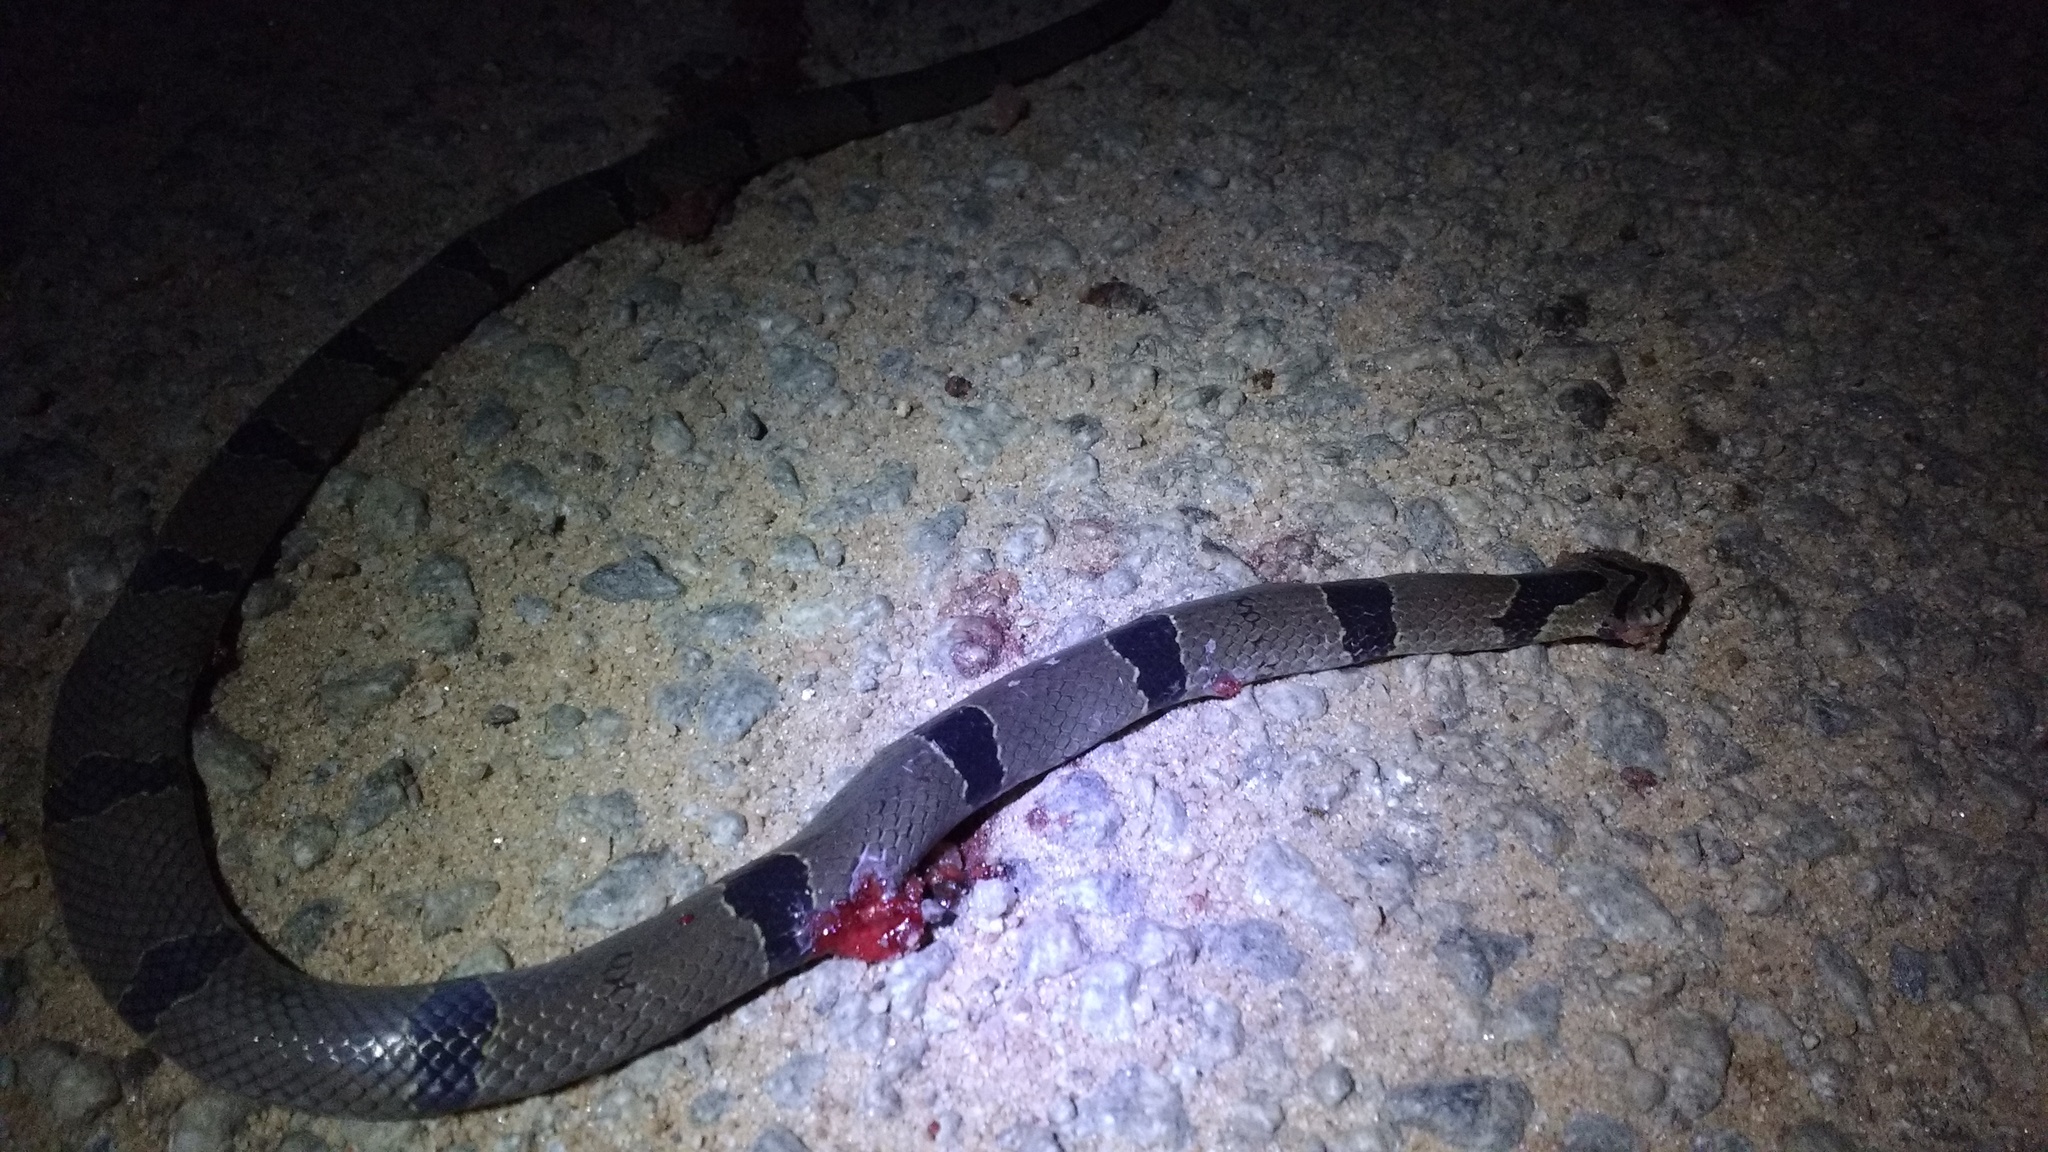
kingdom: Animalia
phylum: Chordata
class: Squamata
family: Colubridae
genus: Oligodon
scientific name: Oligodon arnensis
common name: Banded kukri
